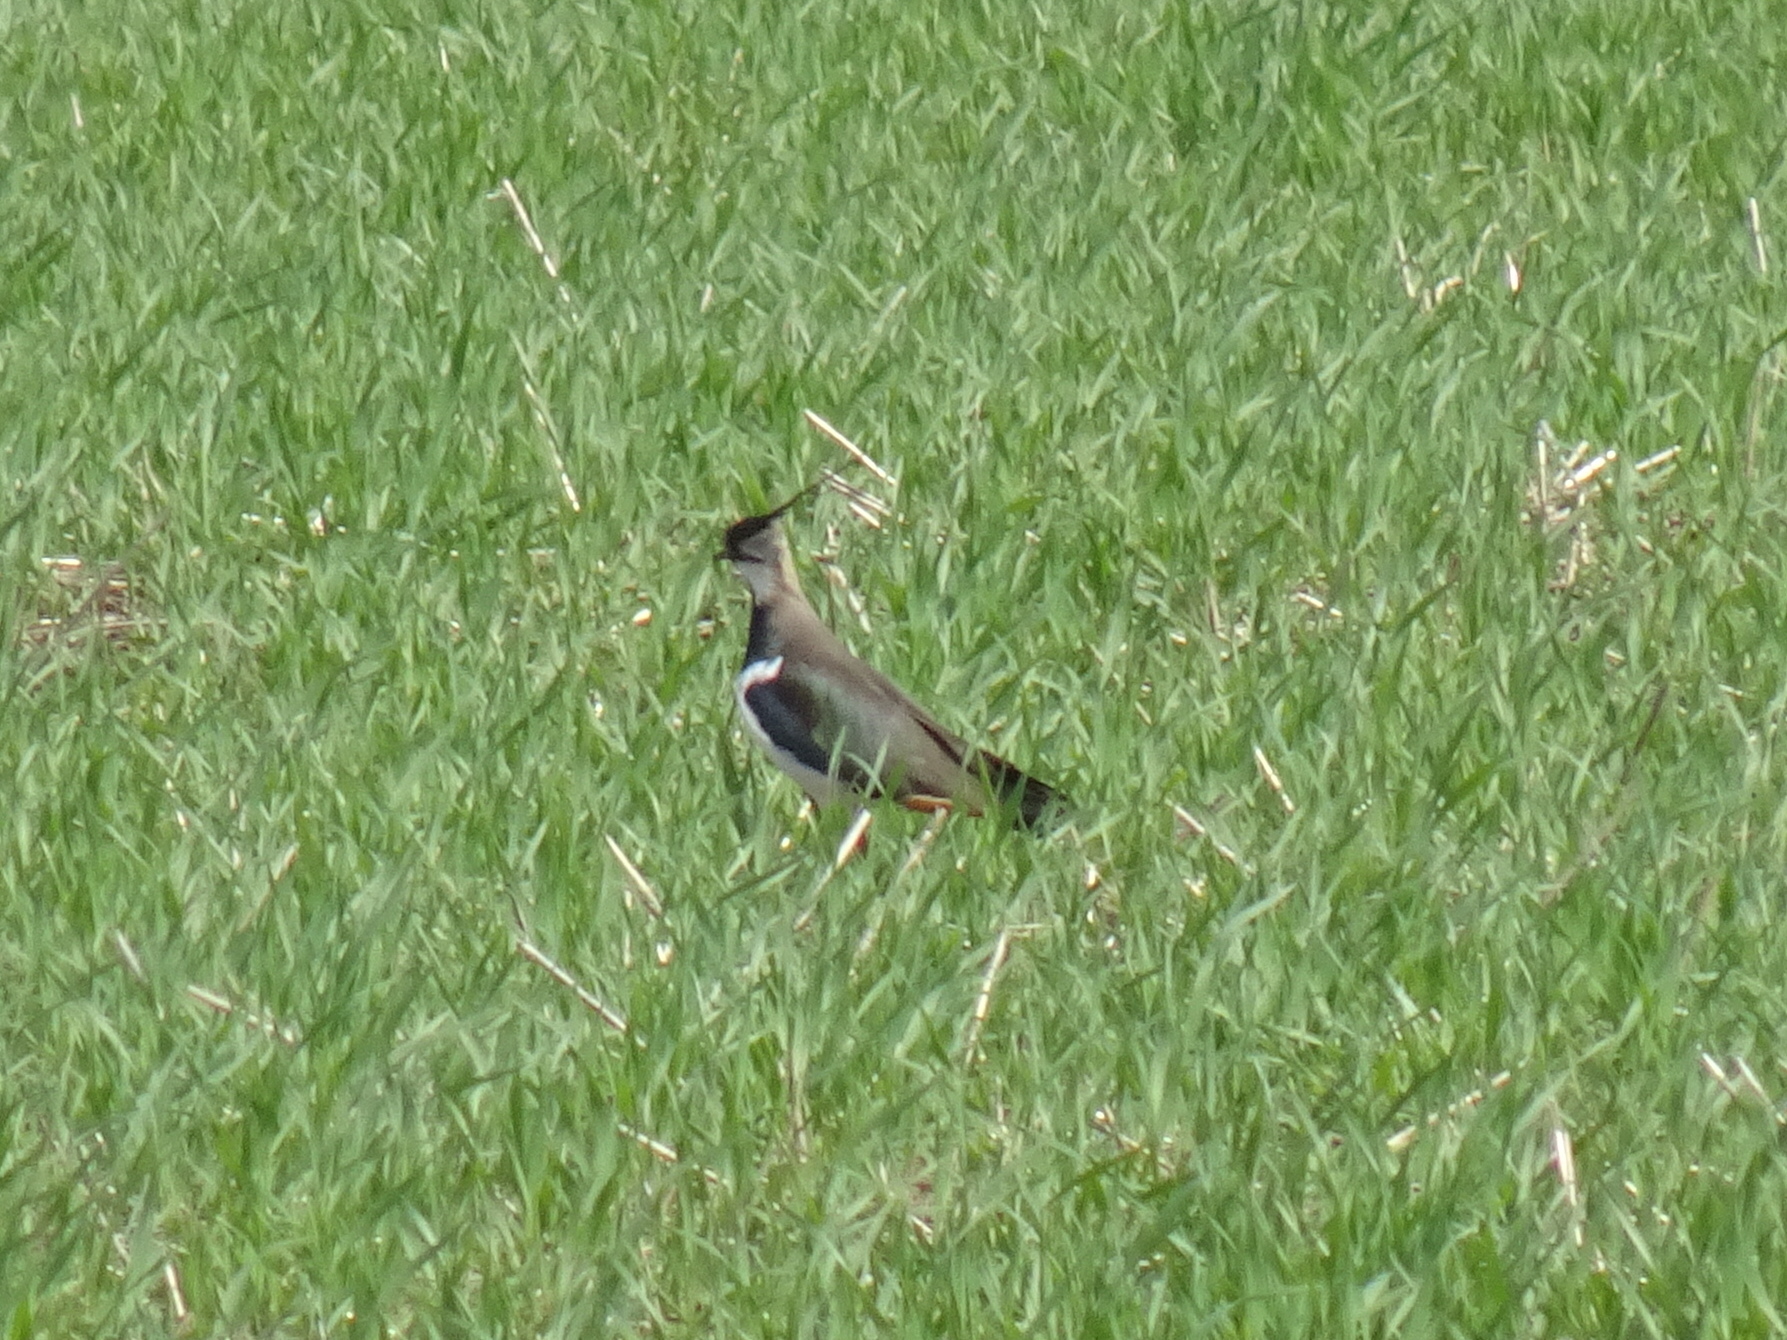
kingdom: Animalia
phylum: Chordata
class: Aves
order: Charadriiformes
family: Charadriidae
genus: Vanellus
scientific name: Vanellus vanellus
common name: Northern lapwing
